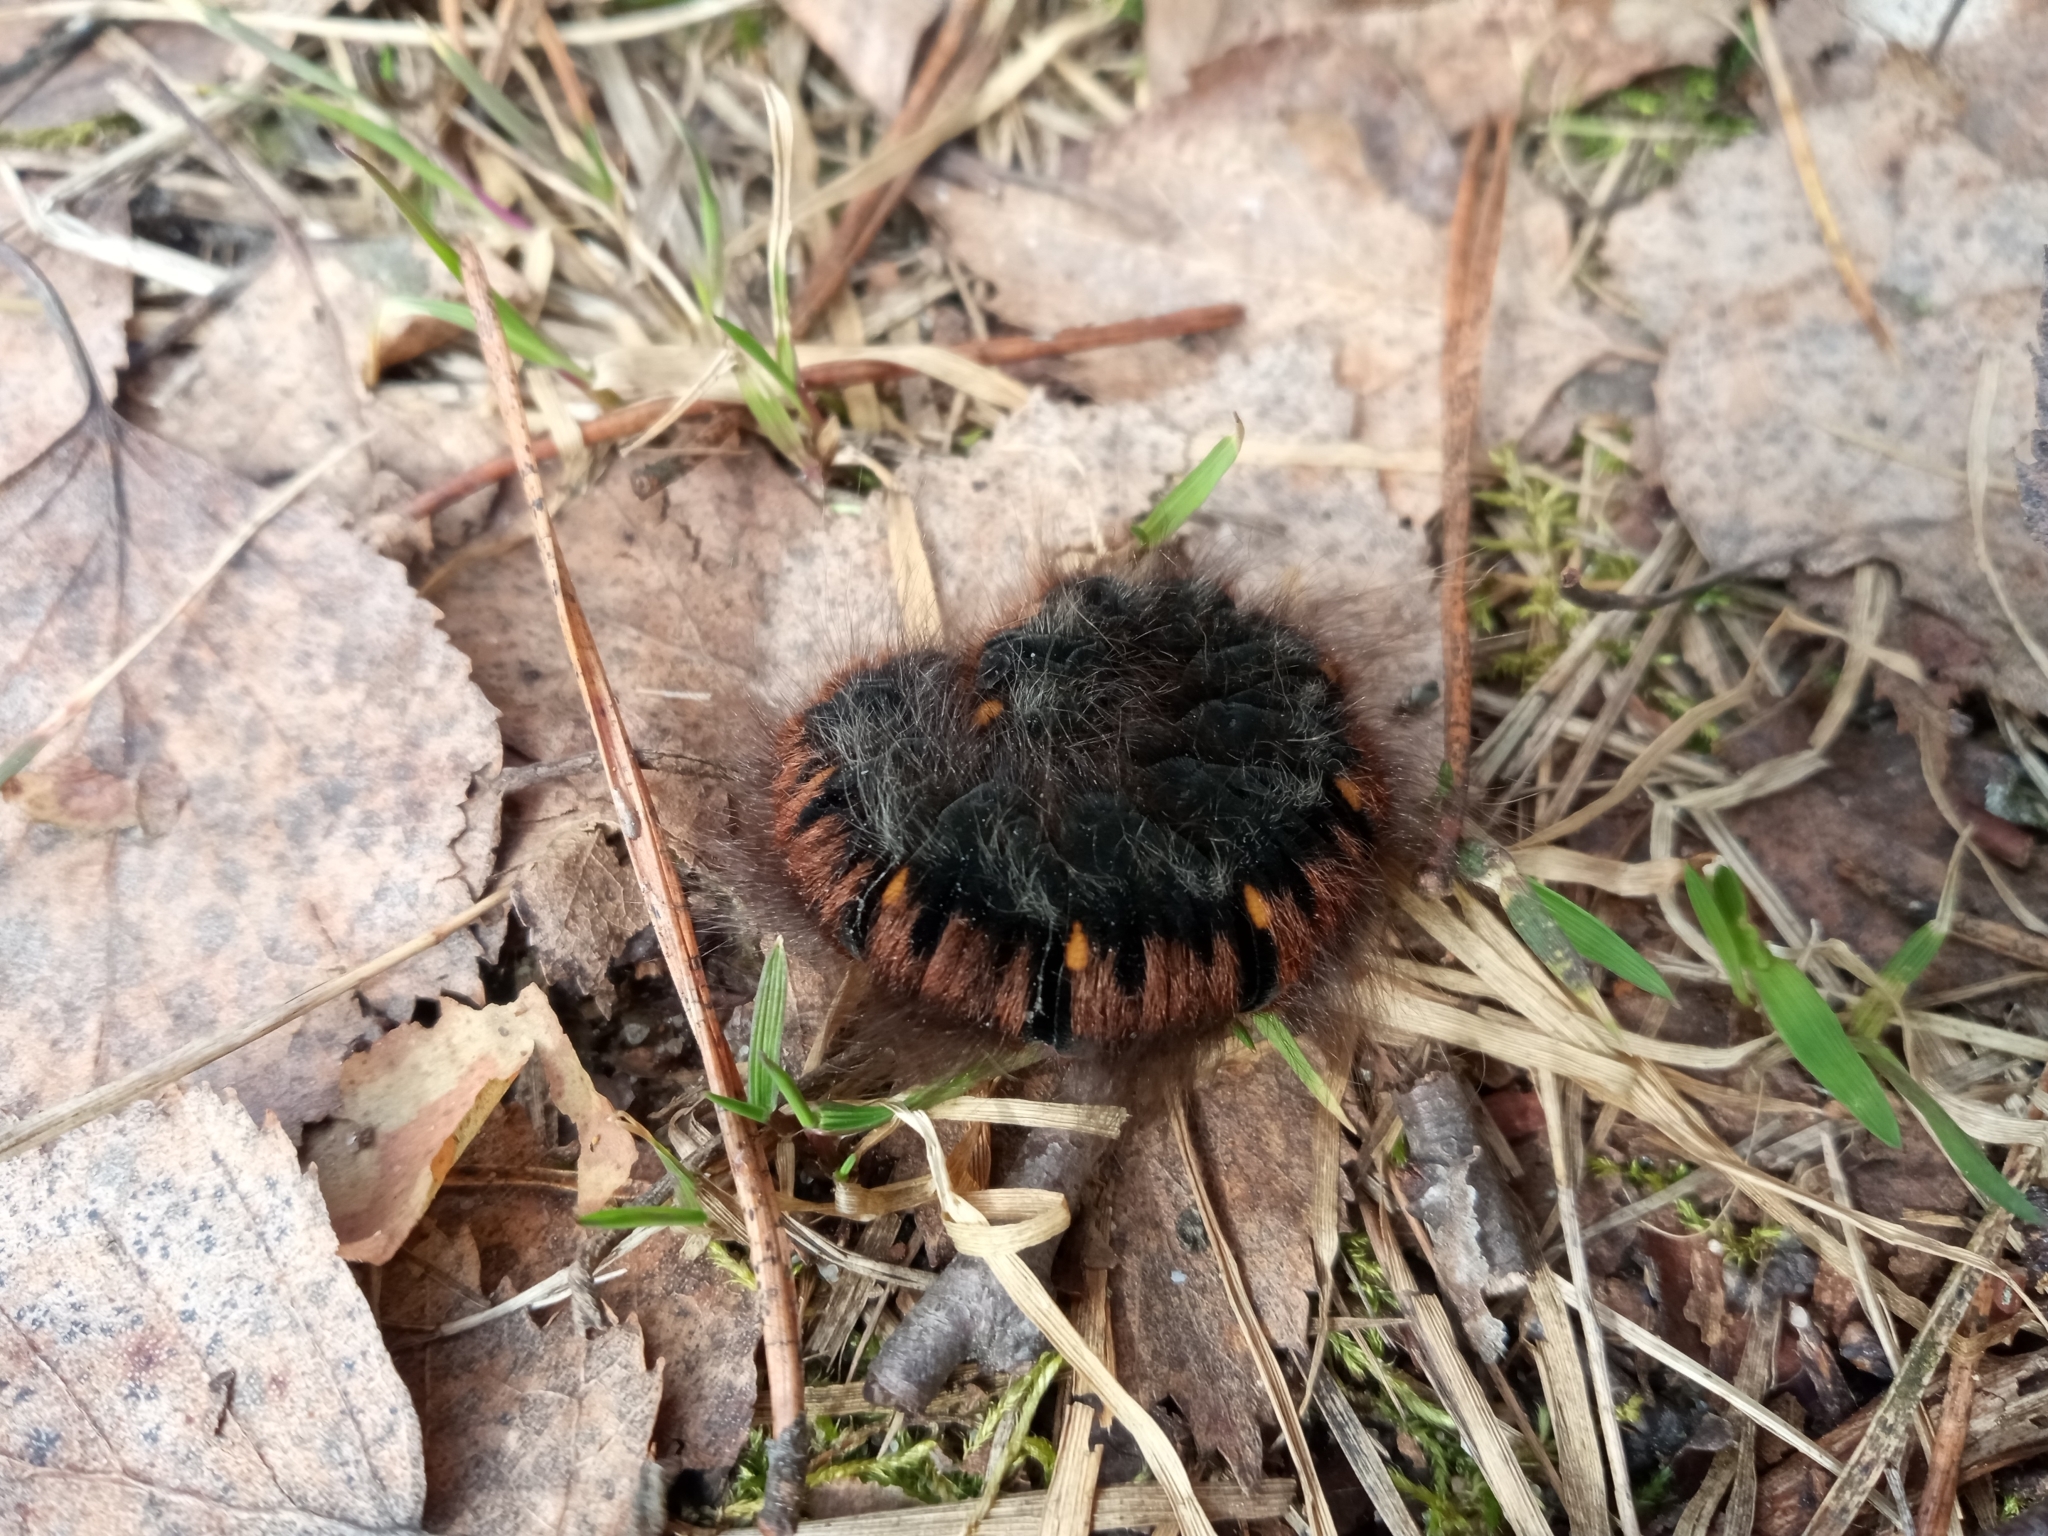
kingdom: Animalia
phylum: Arthropoda
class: Insecta
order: Lepidoptera
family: Lasiocampidae
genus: Macrothylacia
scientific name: Macrothylacia rubi
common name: Fox moth
